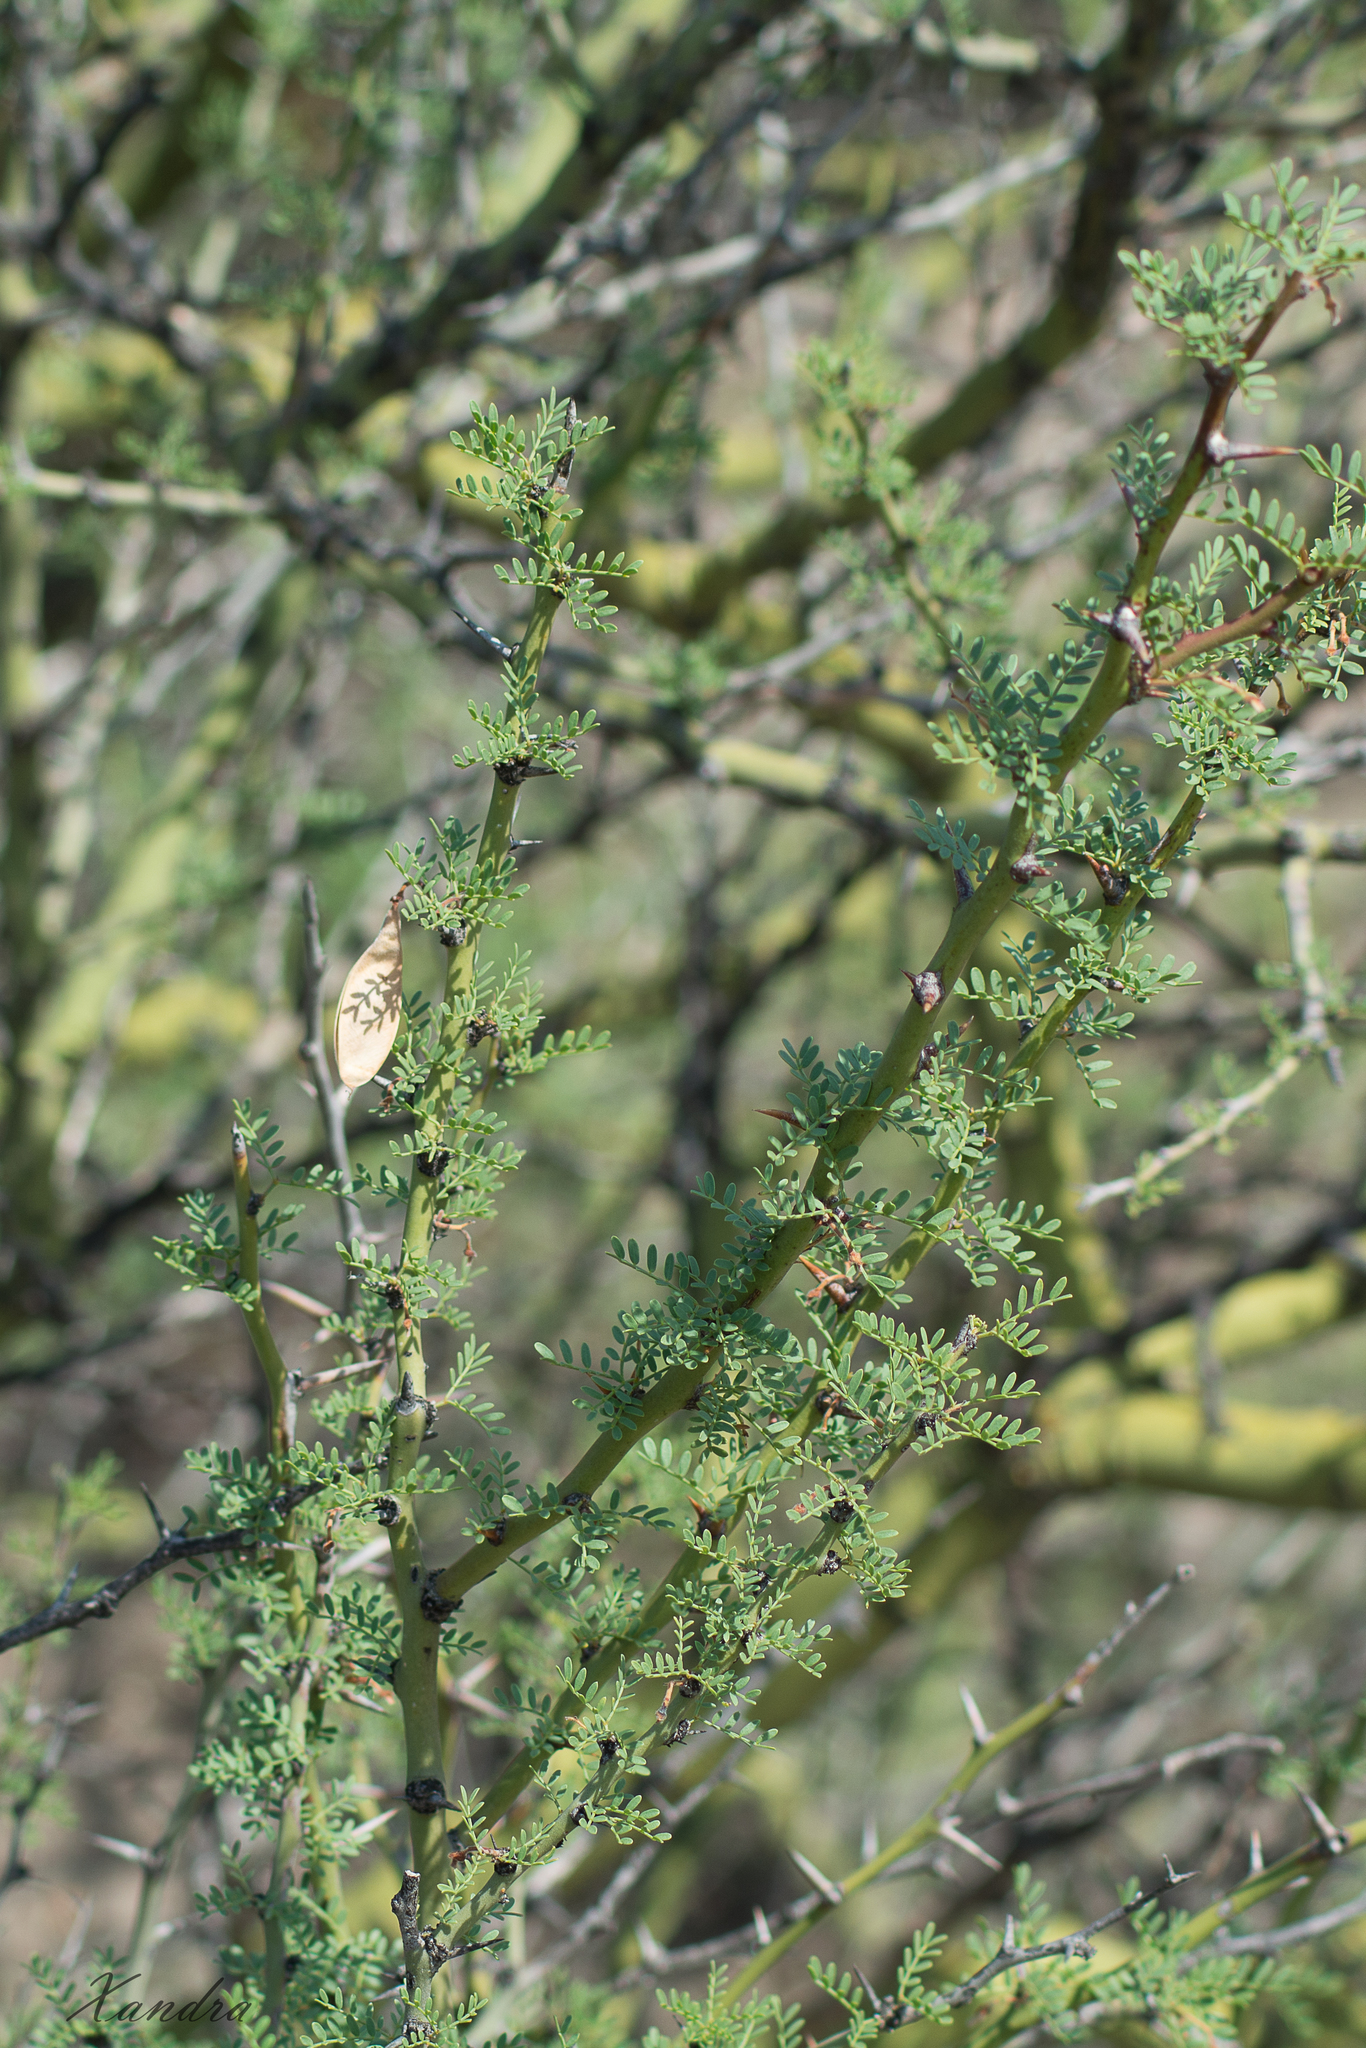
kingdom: Plantae
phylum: Tracheophyta
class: Magnoliopsida
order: Fabales
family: Fabaceae
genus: Parkinsonia
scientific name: Parkinsonia praecox
